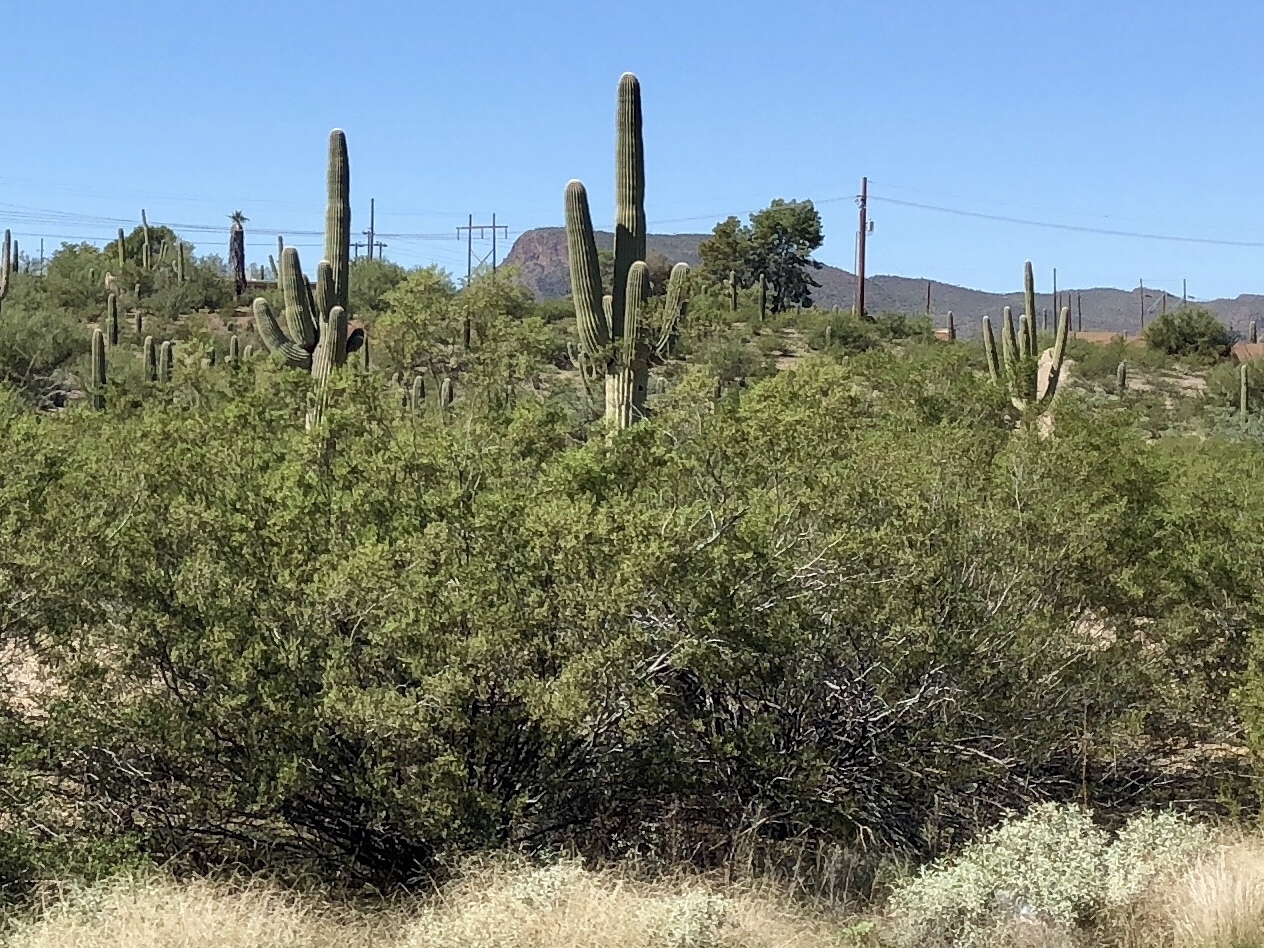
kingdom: Plantae
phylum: Tracheophyta
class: Magnoliopsida
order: Zygophyllales
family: Zygophyllaceae
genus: Larrea
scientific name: Larrea tridentata
